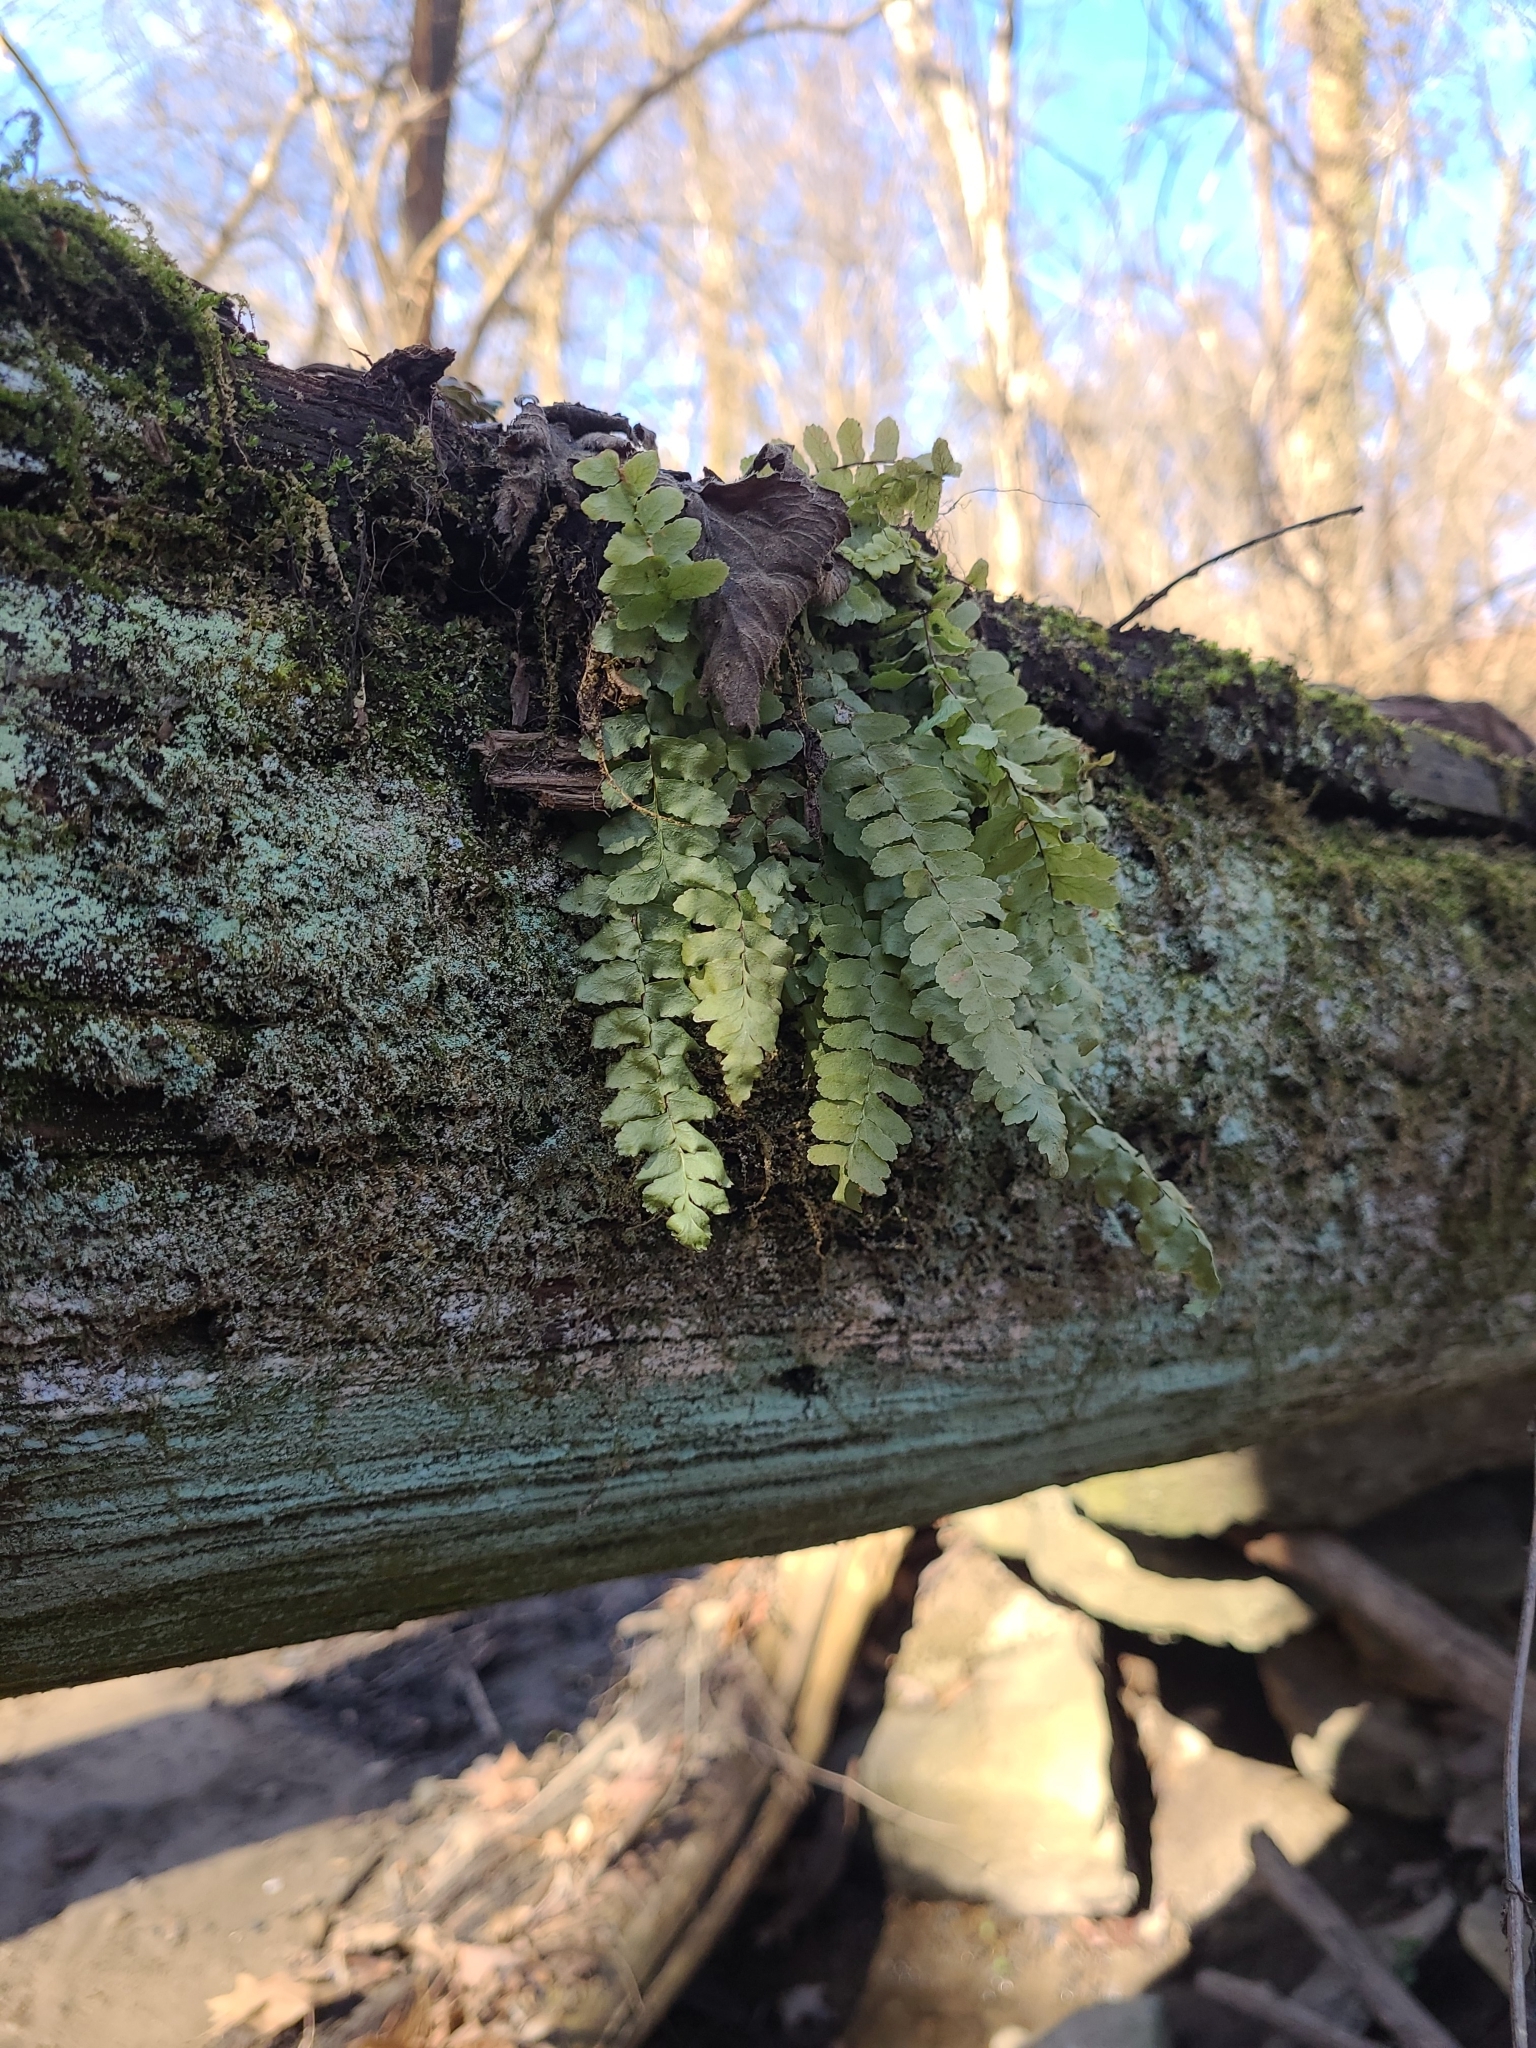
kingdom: Plantae
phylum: Tracheophyta
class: Polypodiopsida
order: Polypodiales
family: Aspleniaceae
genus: Asplenium
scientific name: Asplenium platyneuron
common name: Ebony spleenwort
